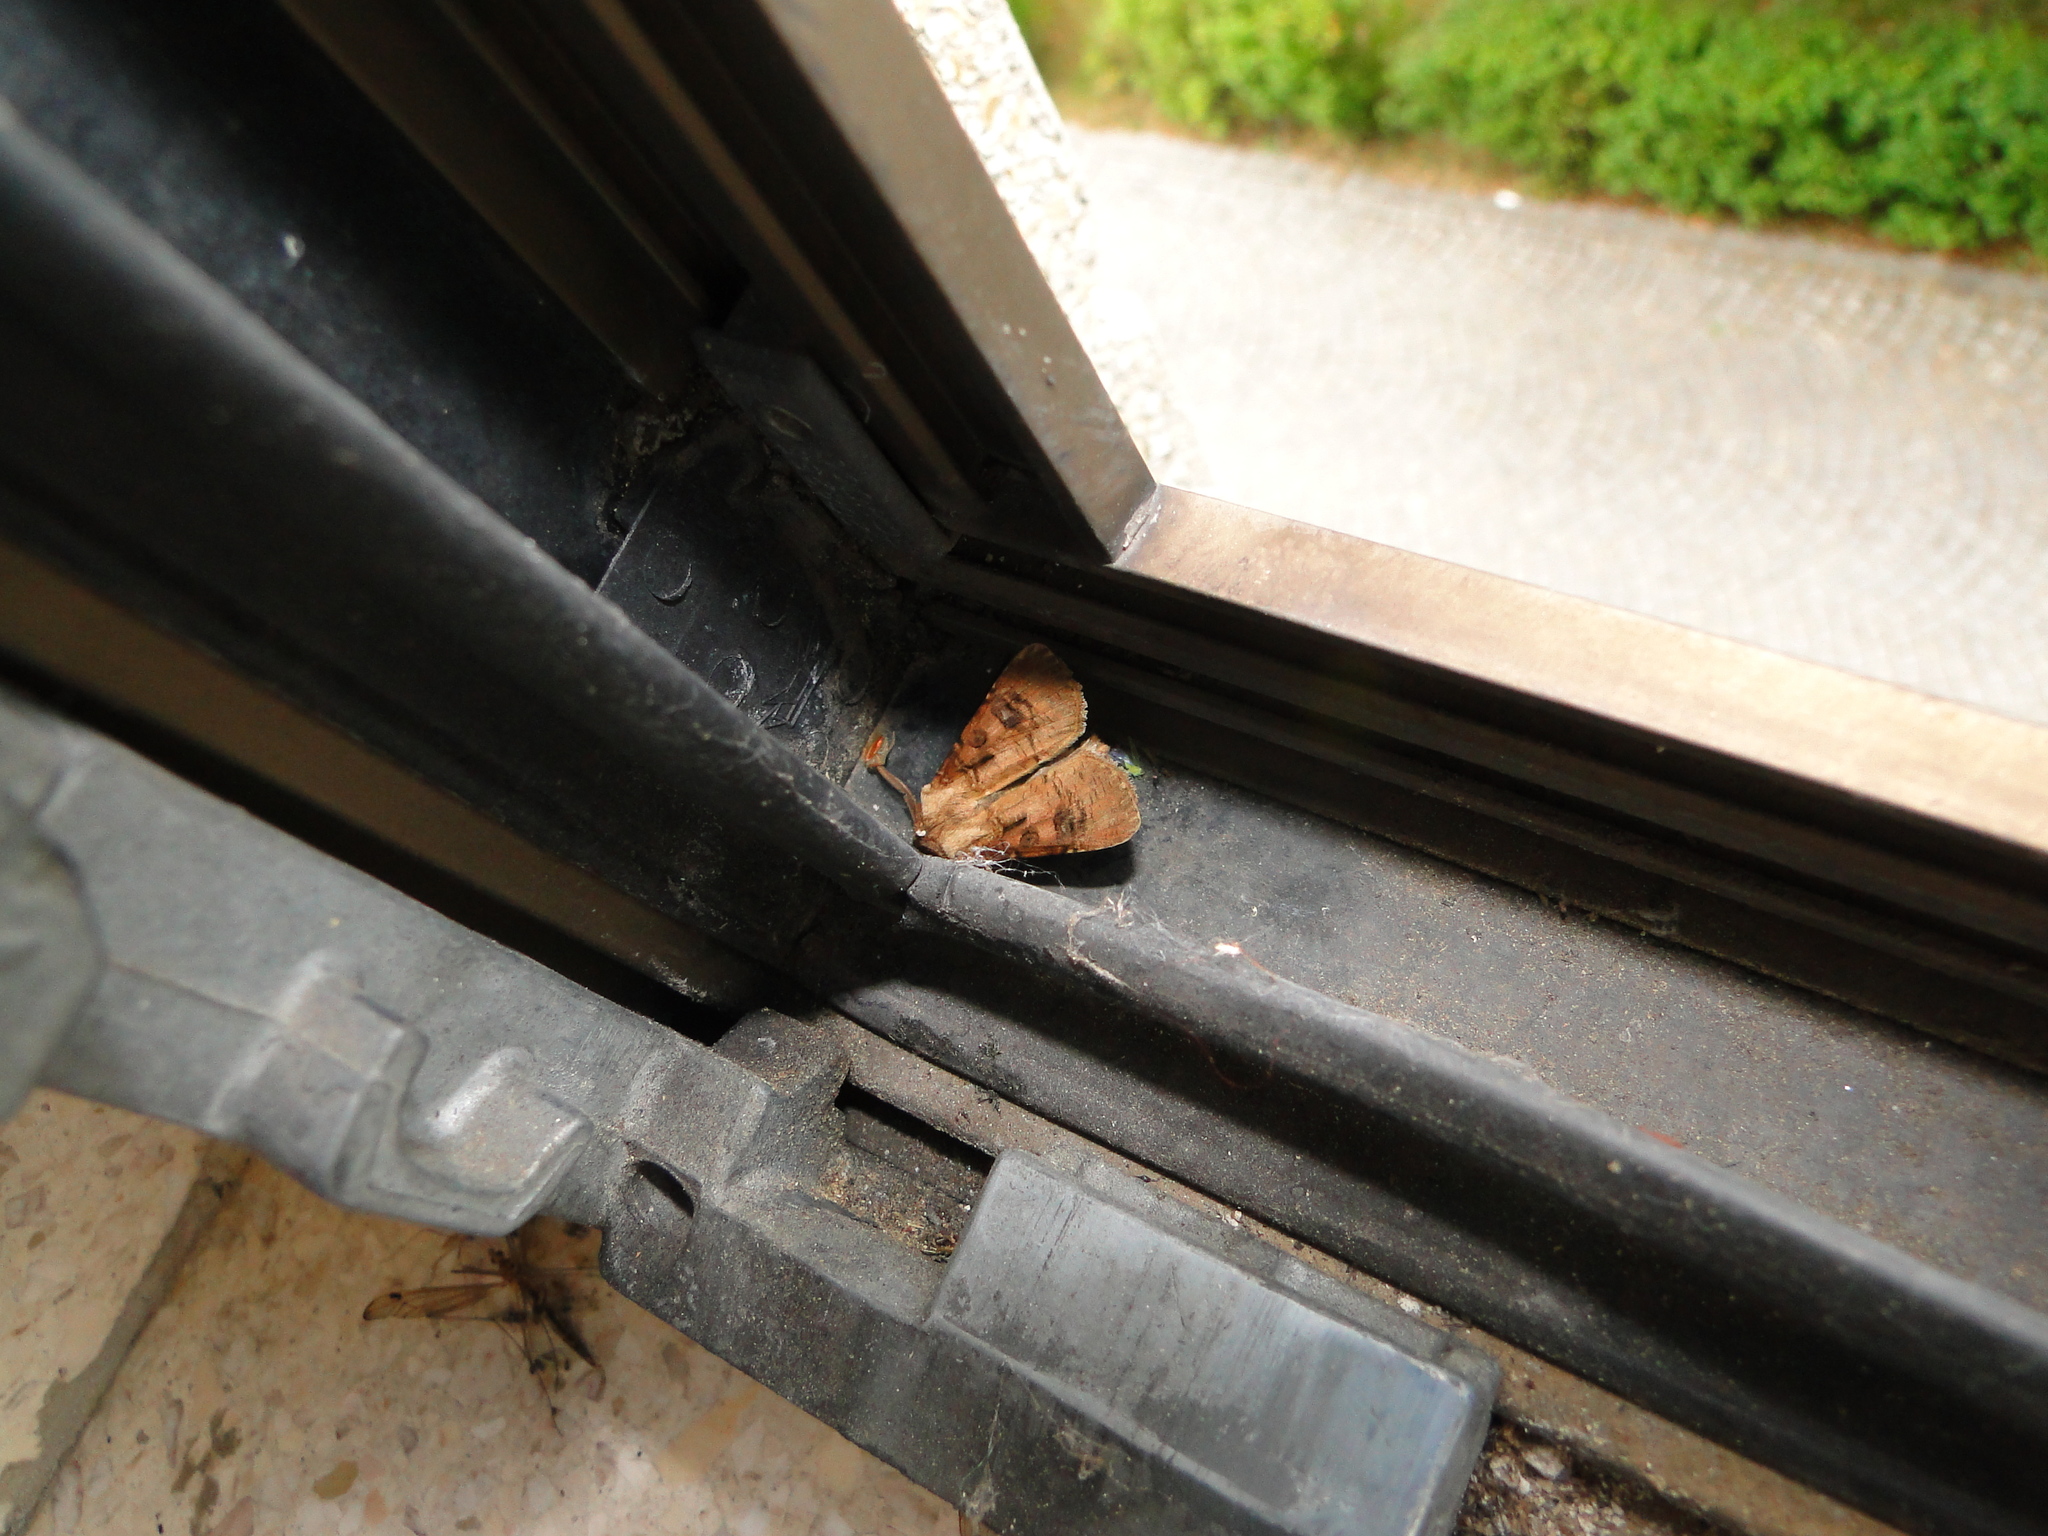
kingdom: Animalia
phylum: Arthropoda
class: Insecta
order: Lepidoptera
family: Noctuidae
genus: Agrotis
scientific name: Agrotis clavis
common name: Heart and club
